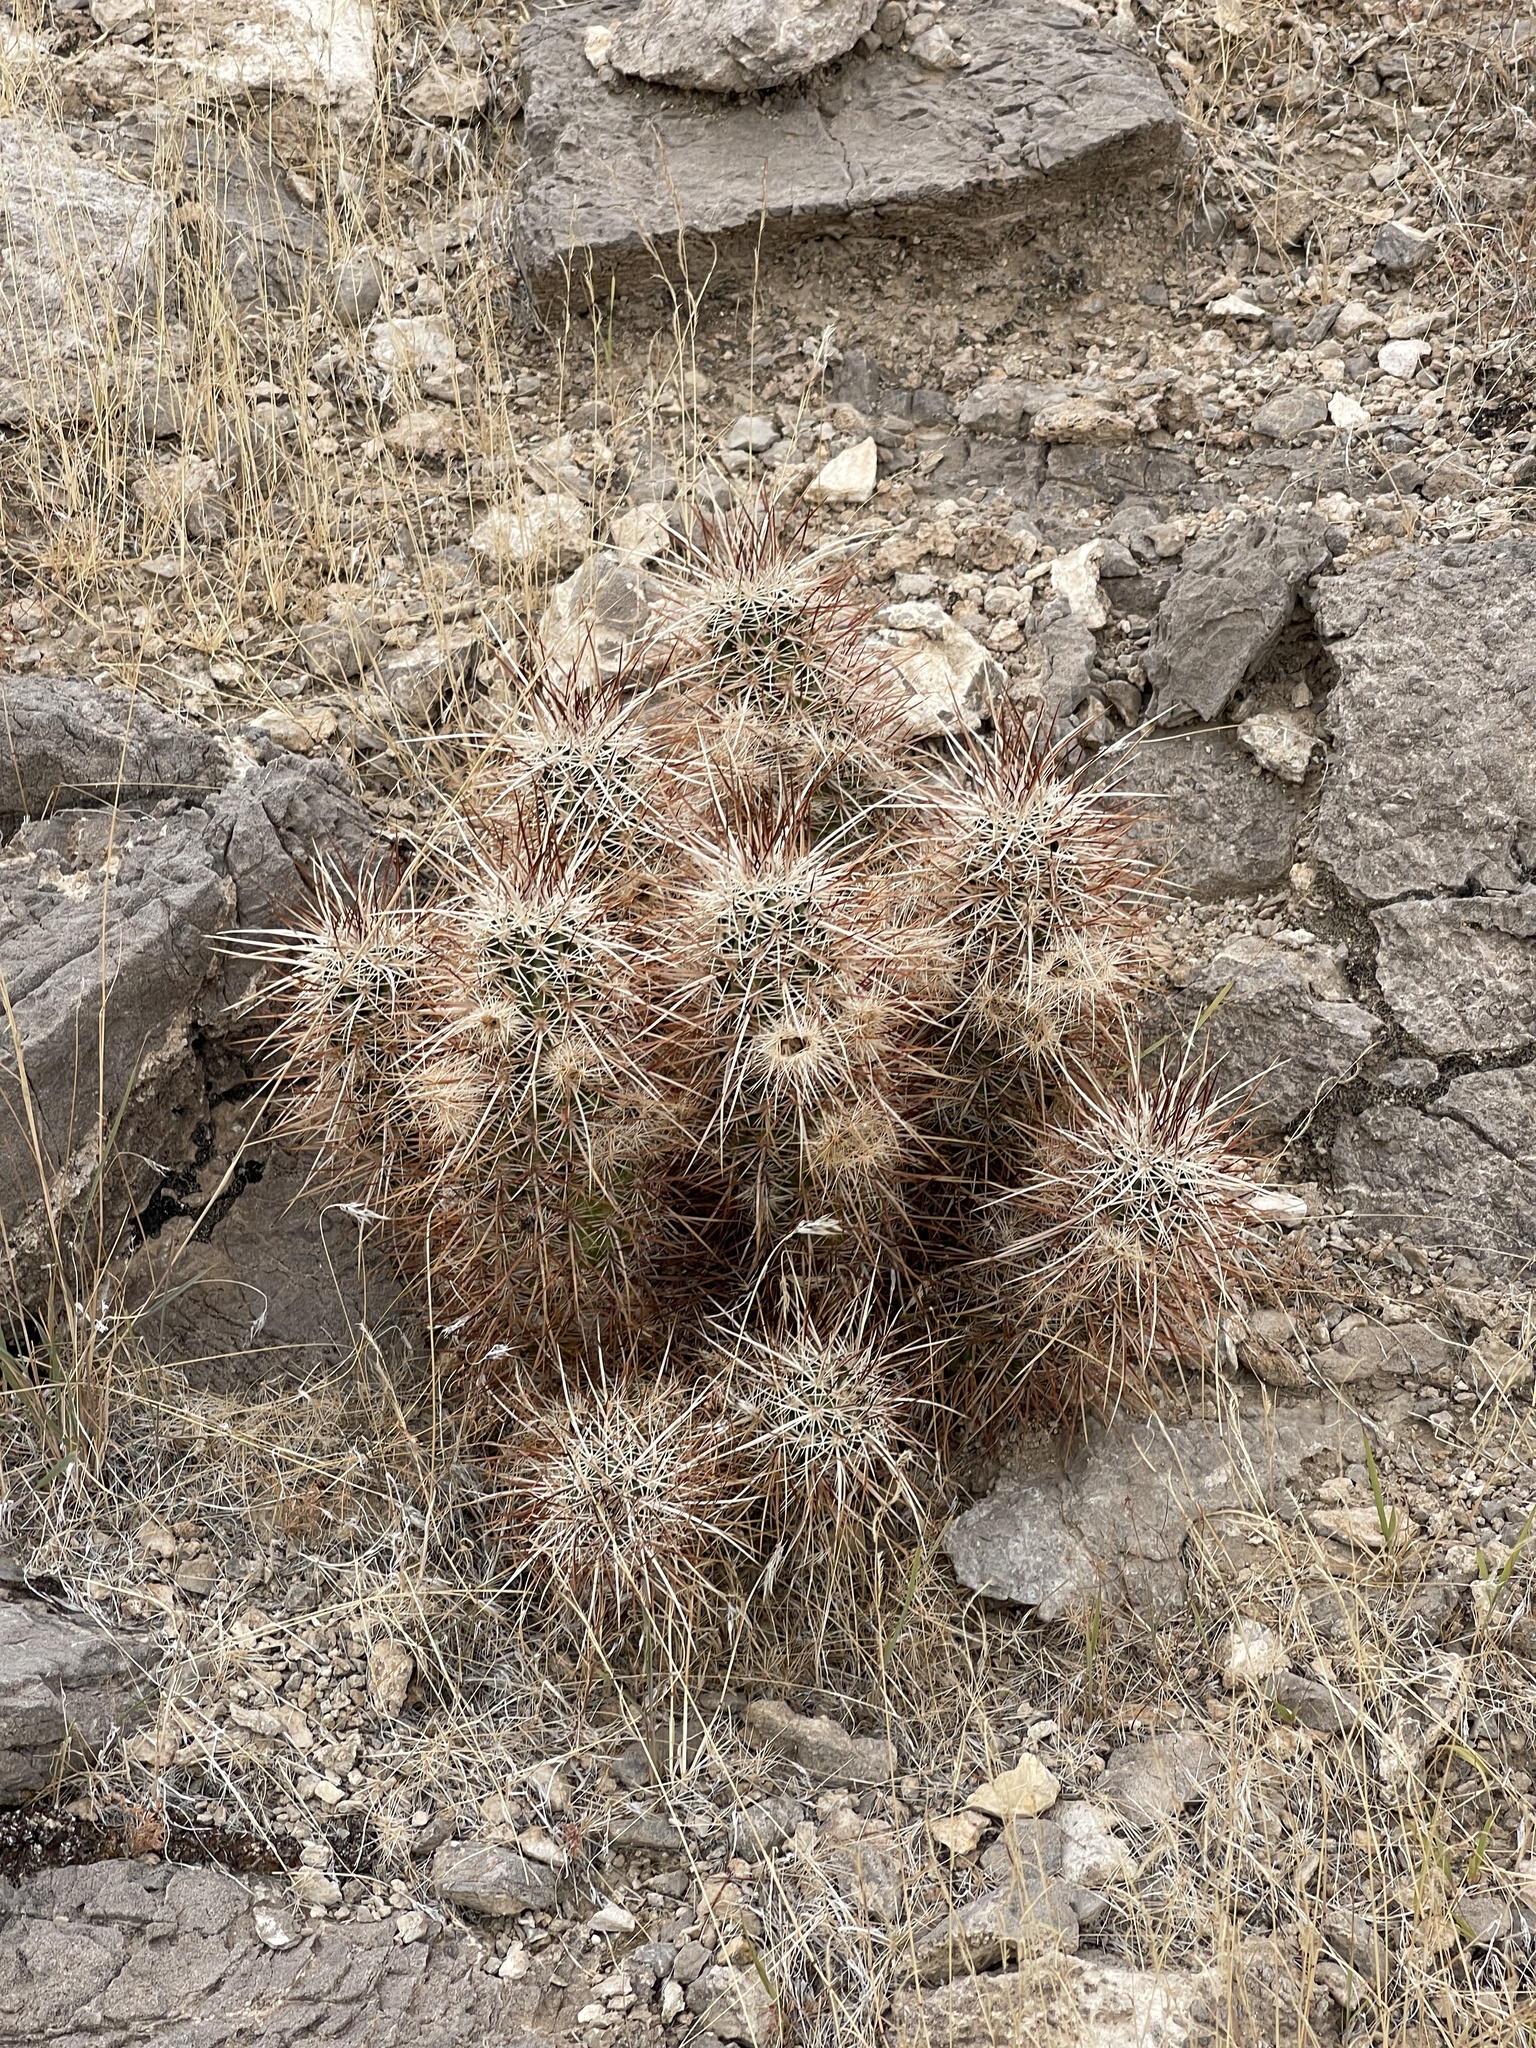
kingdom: Plantae
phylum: Tracheophyta
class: Magnoliopsida
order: Caryophyllales
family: Cactaceae
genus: Echinocereus
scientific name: Echinocereus engelmannii
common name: Engelmann's hedgehog cactus
